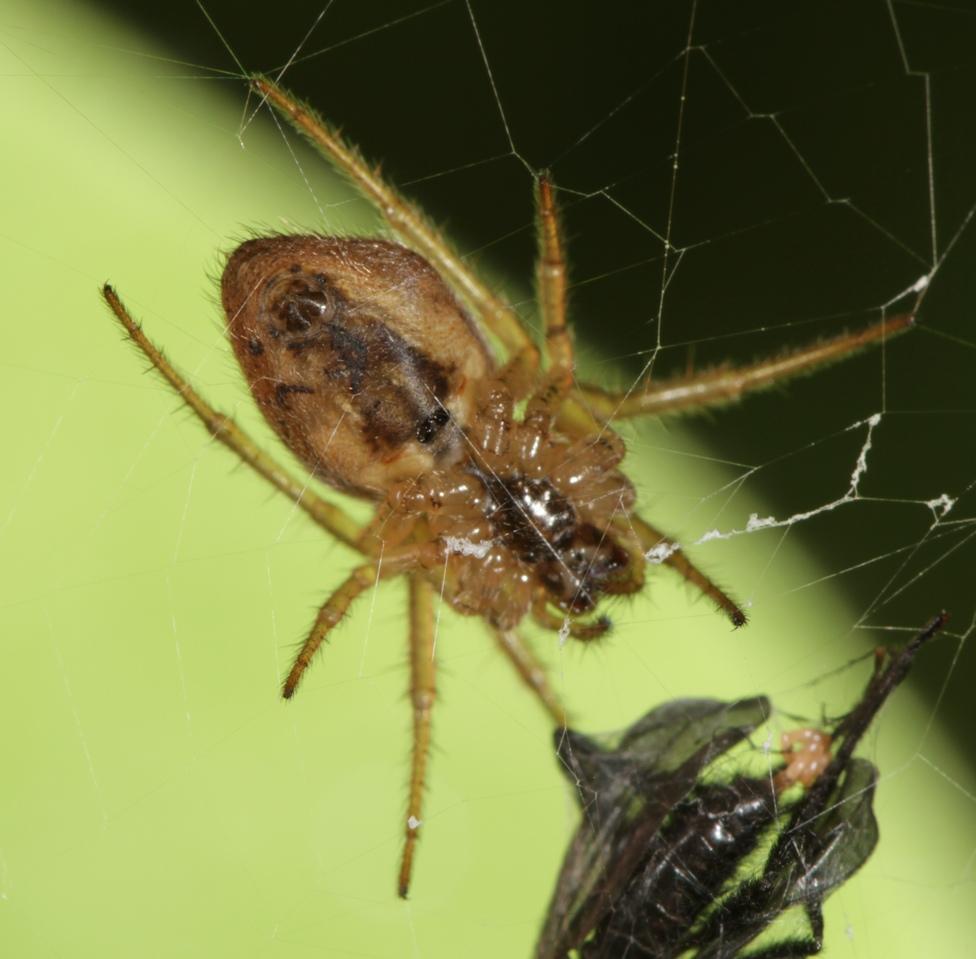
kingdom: Animalia
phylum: Arthropoda
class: Arachnida
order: Araneae
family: Araneidae
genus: Kilima
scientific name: Kilima decens
